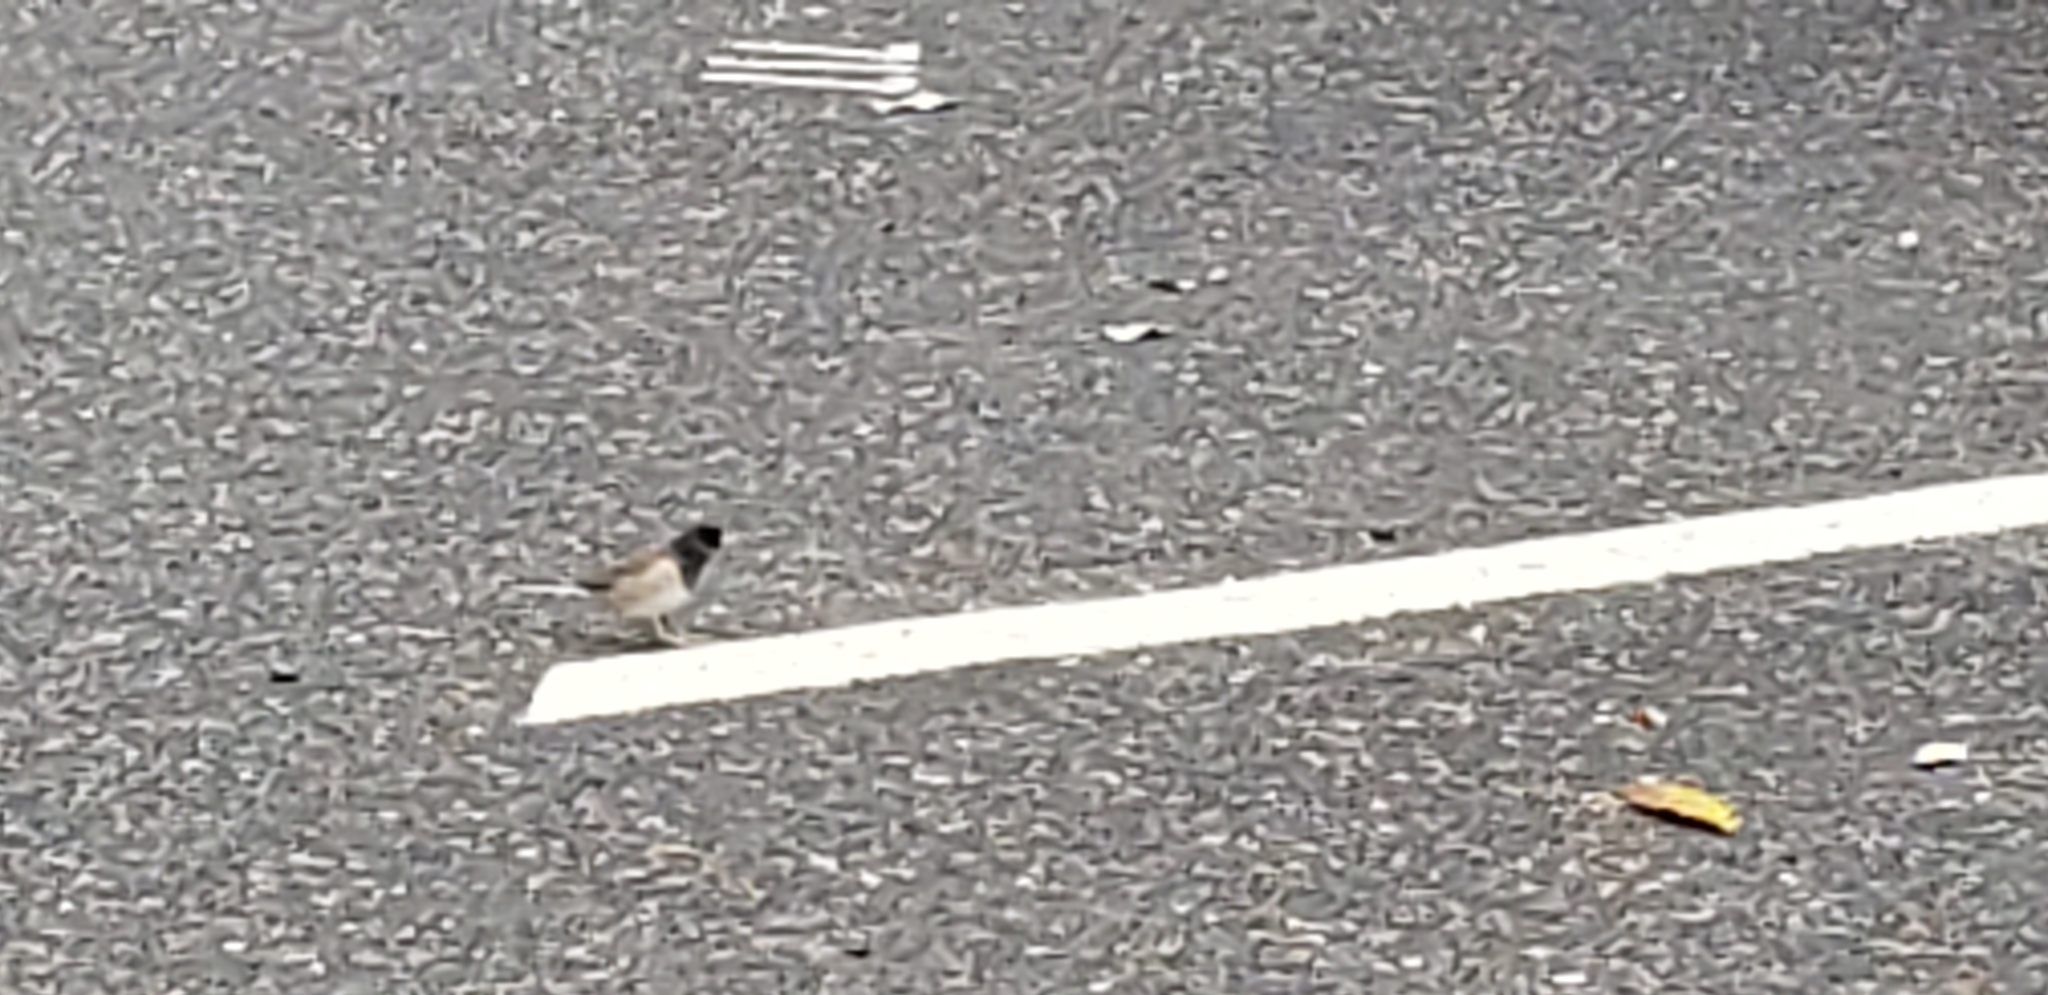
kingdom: Animalia
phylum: Chordata
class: Aves
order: Passeriformes
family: Passerellidae
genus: Junco
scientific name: Junco hyemalis
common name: Dark-eyed junco
